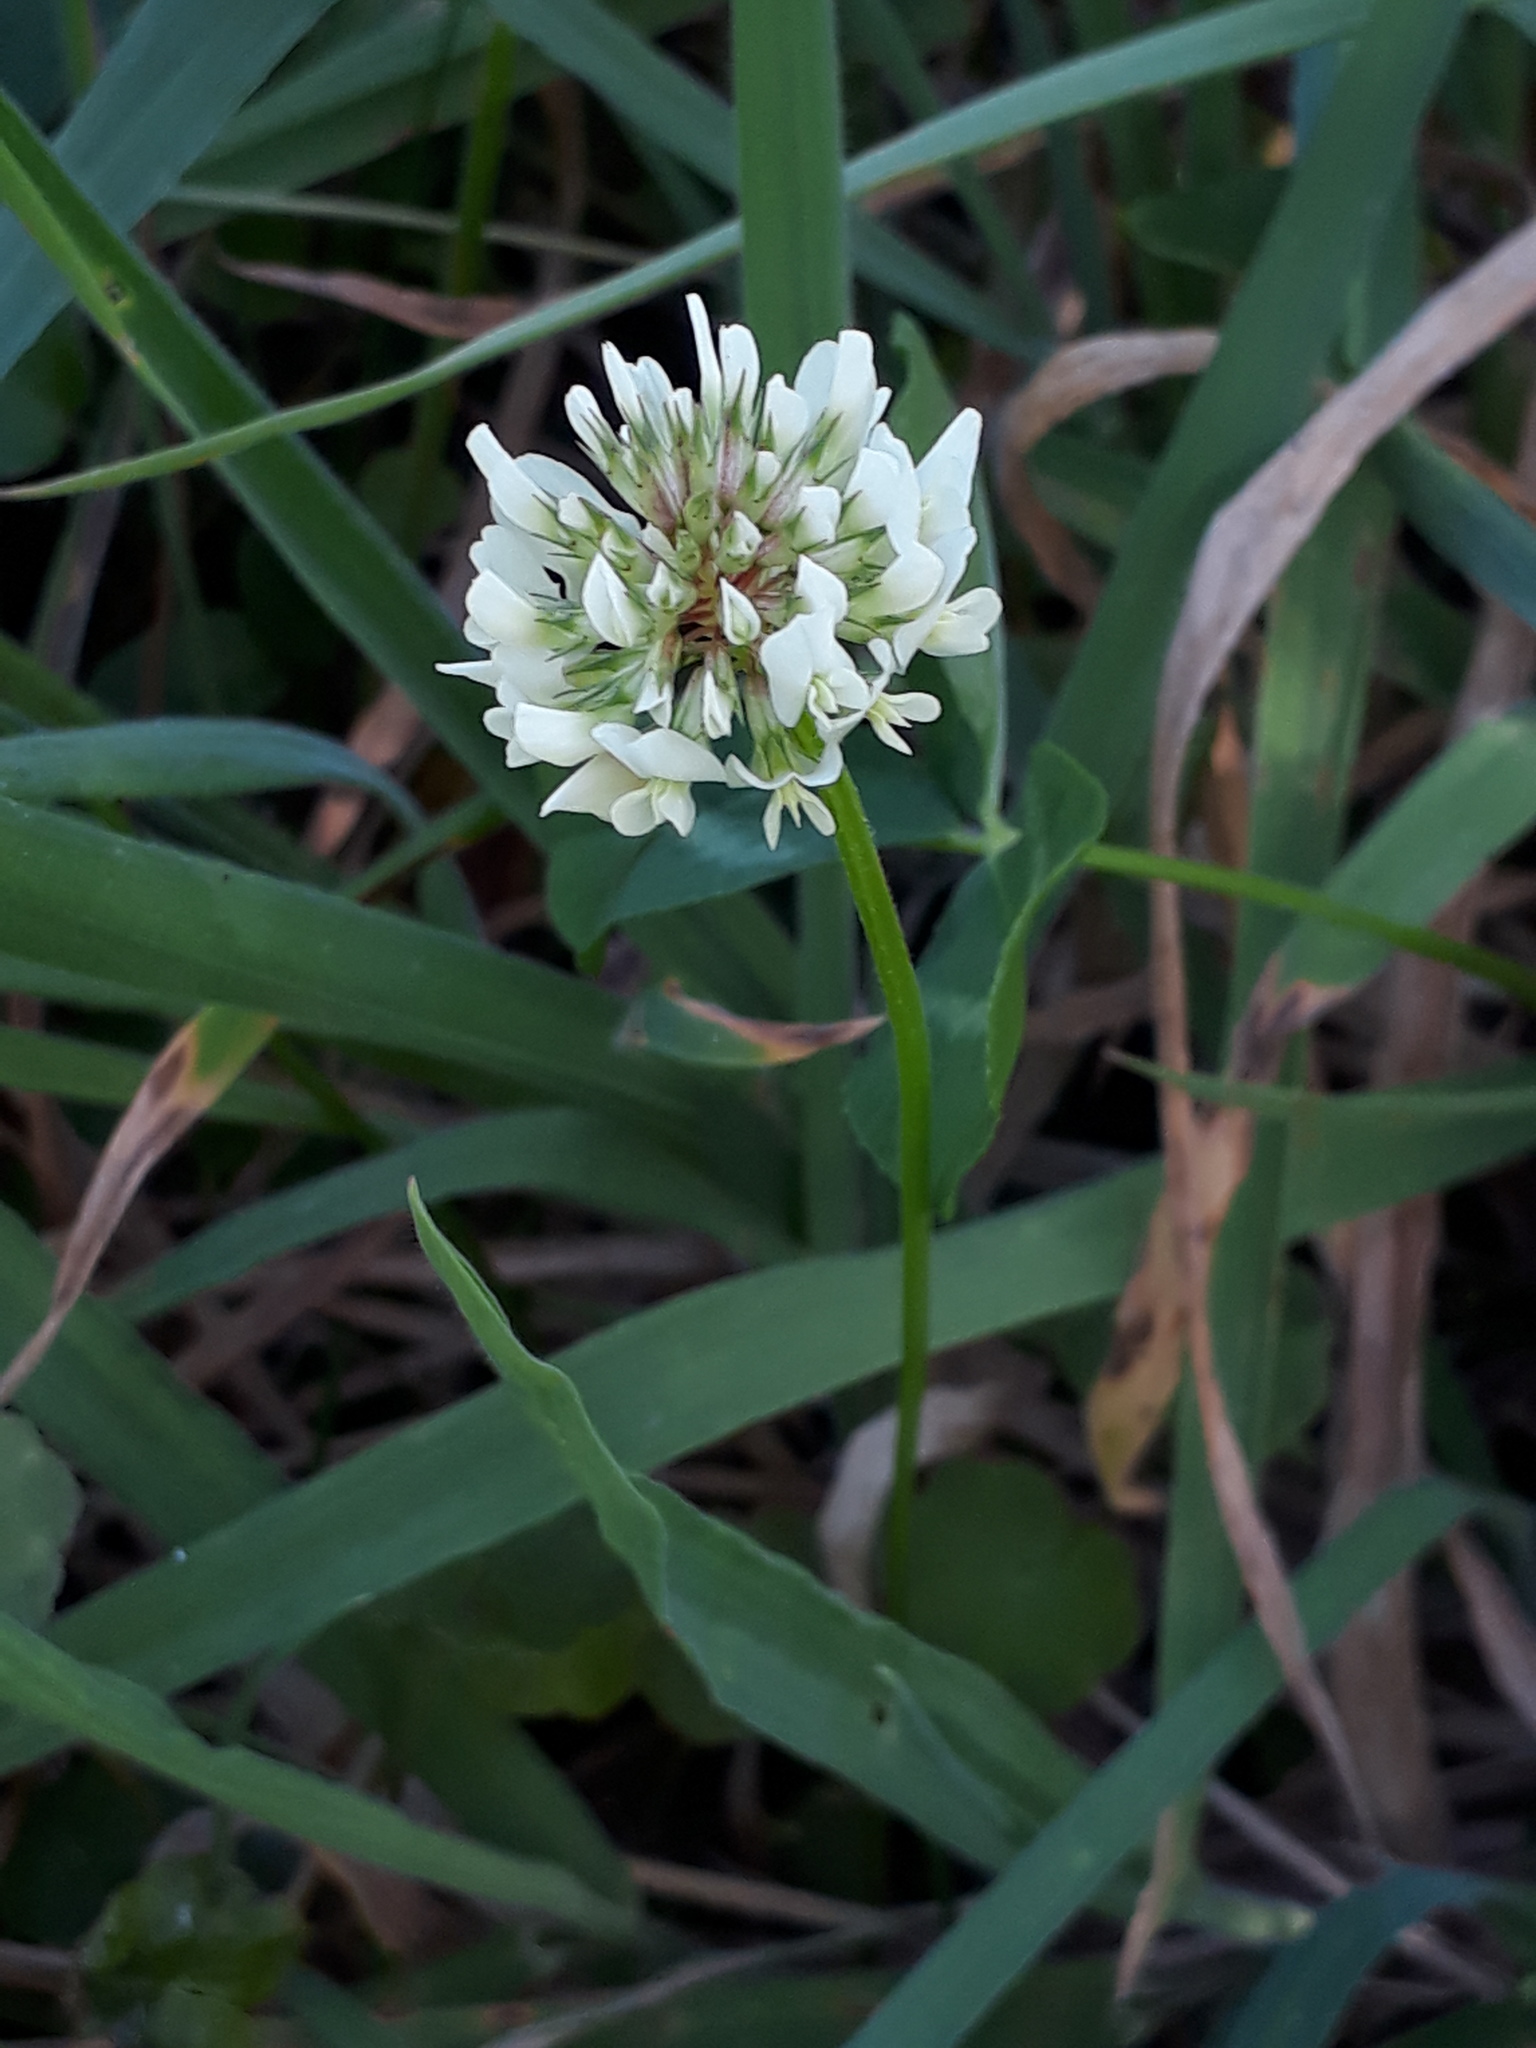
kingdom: Plantae
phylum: Tracheophyta
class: Magnoliopsida
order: Fabales
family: Fabaceae
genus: Trifolium
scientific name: Trifolium repens
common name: White clover
